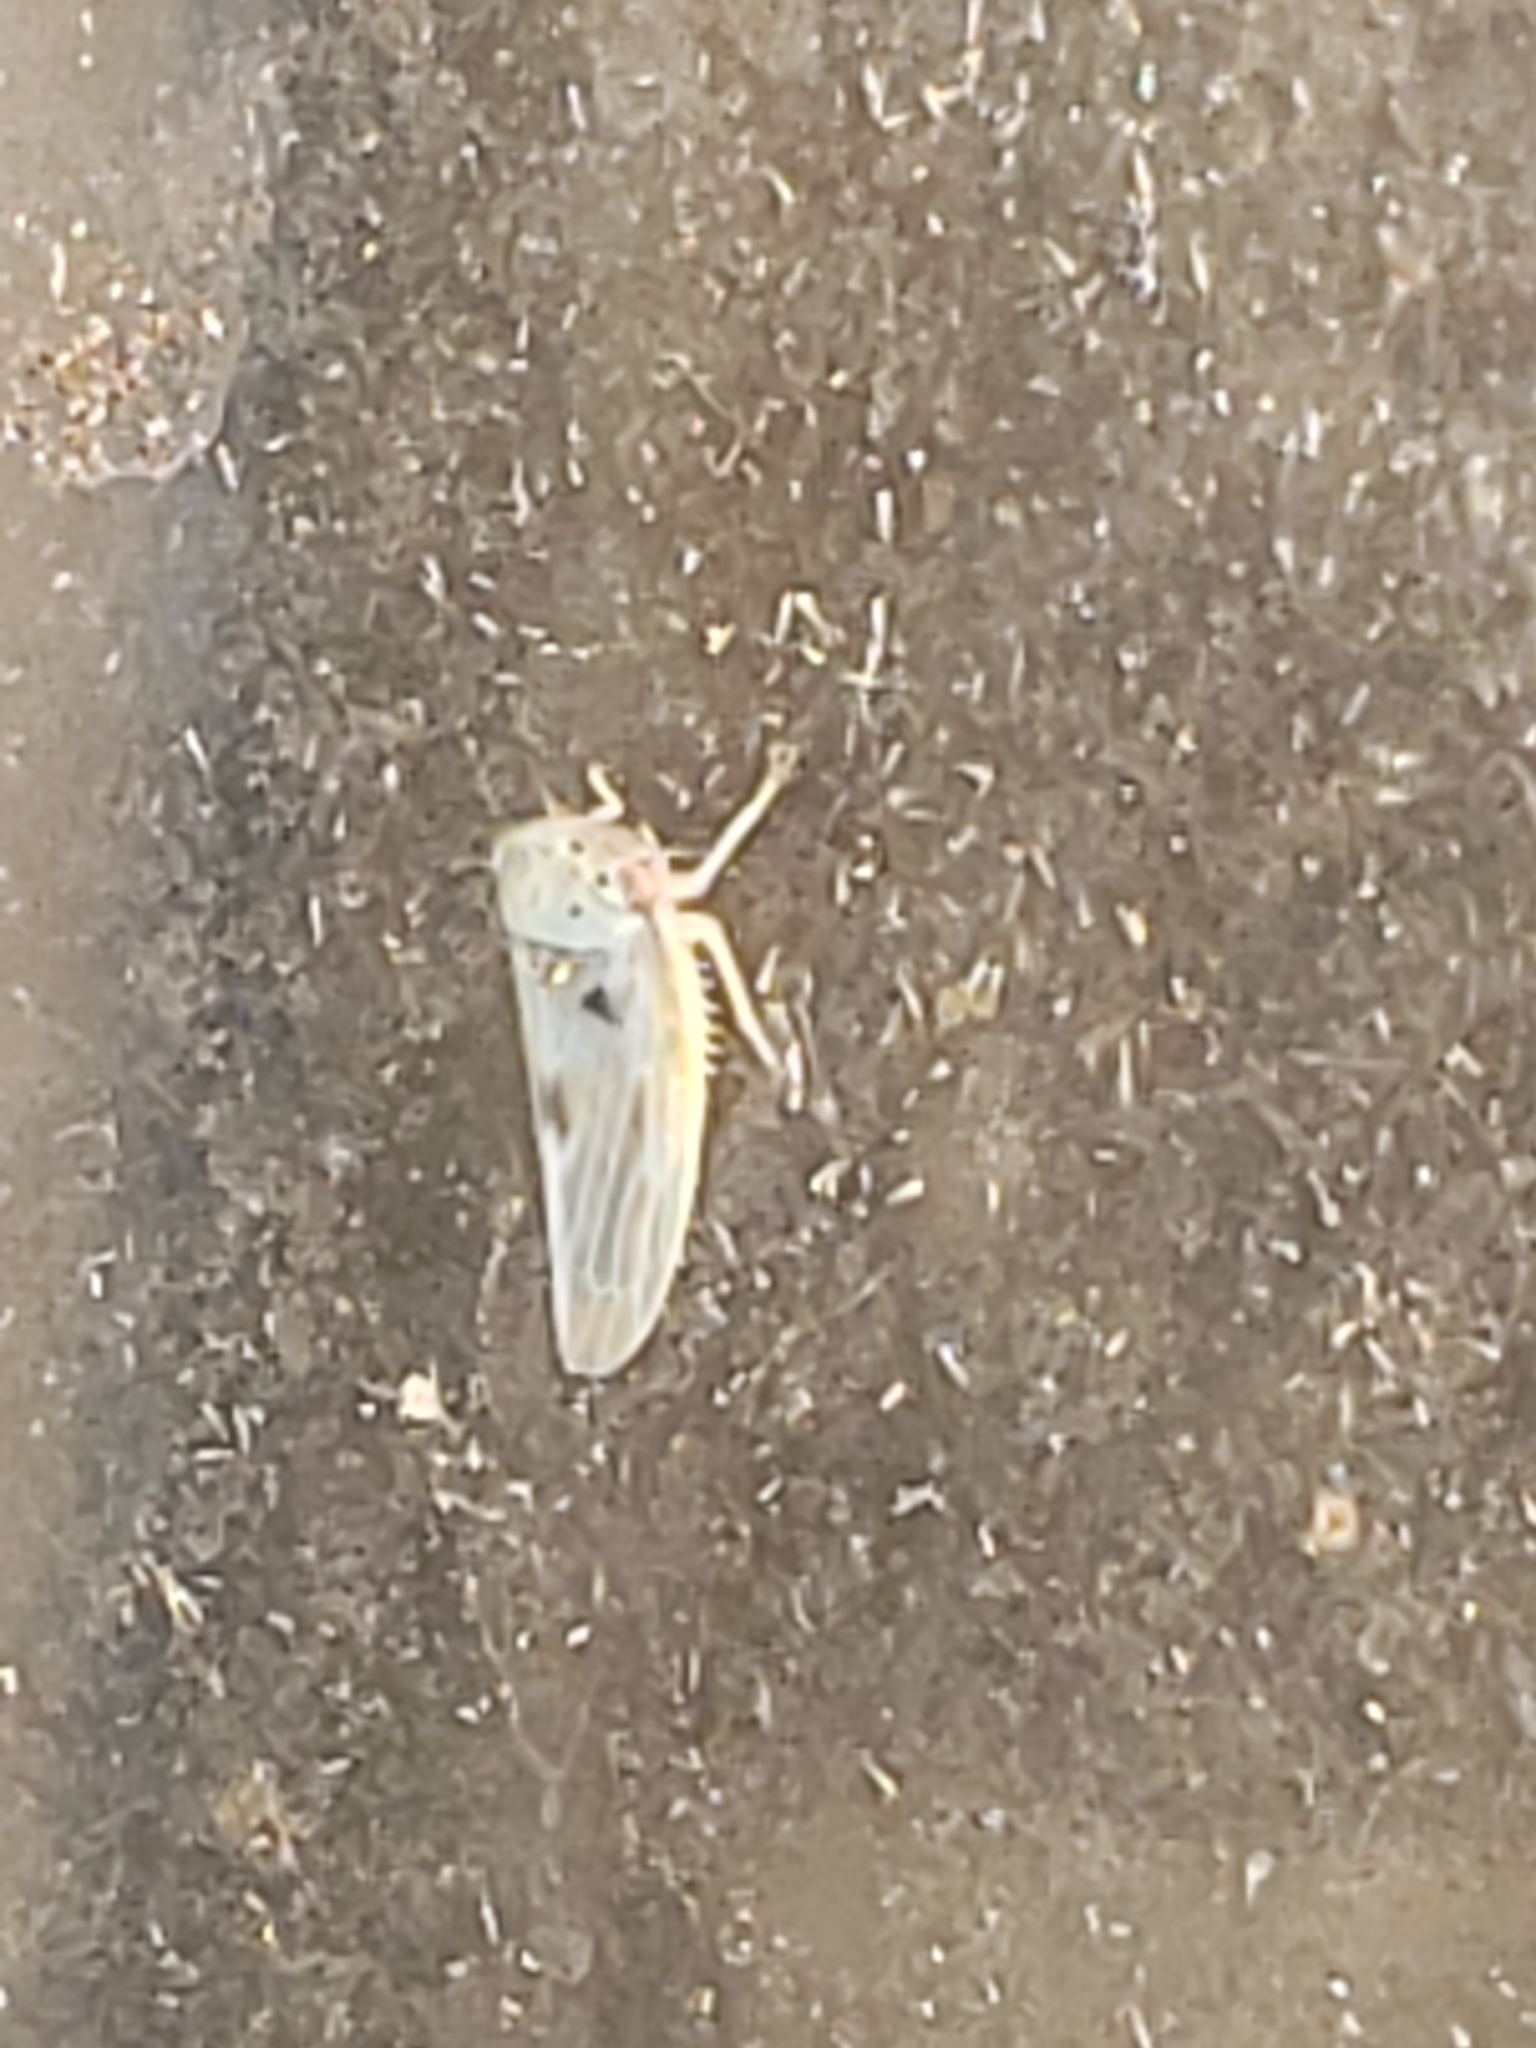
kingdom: Animalia
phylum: Arthropoda
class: Insecta
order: Hemiptera
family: Cicadellidae
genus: Agalliopsis
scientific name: Agalliopsis ancistra
